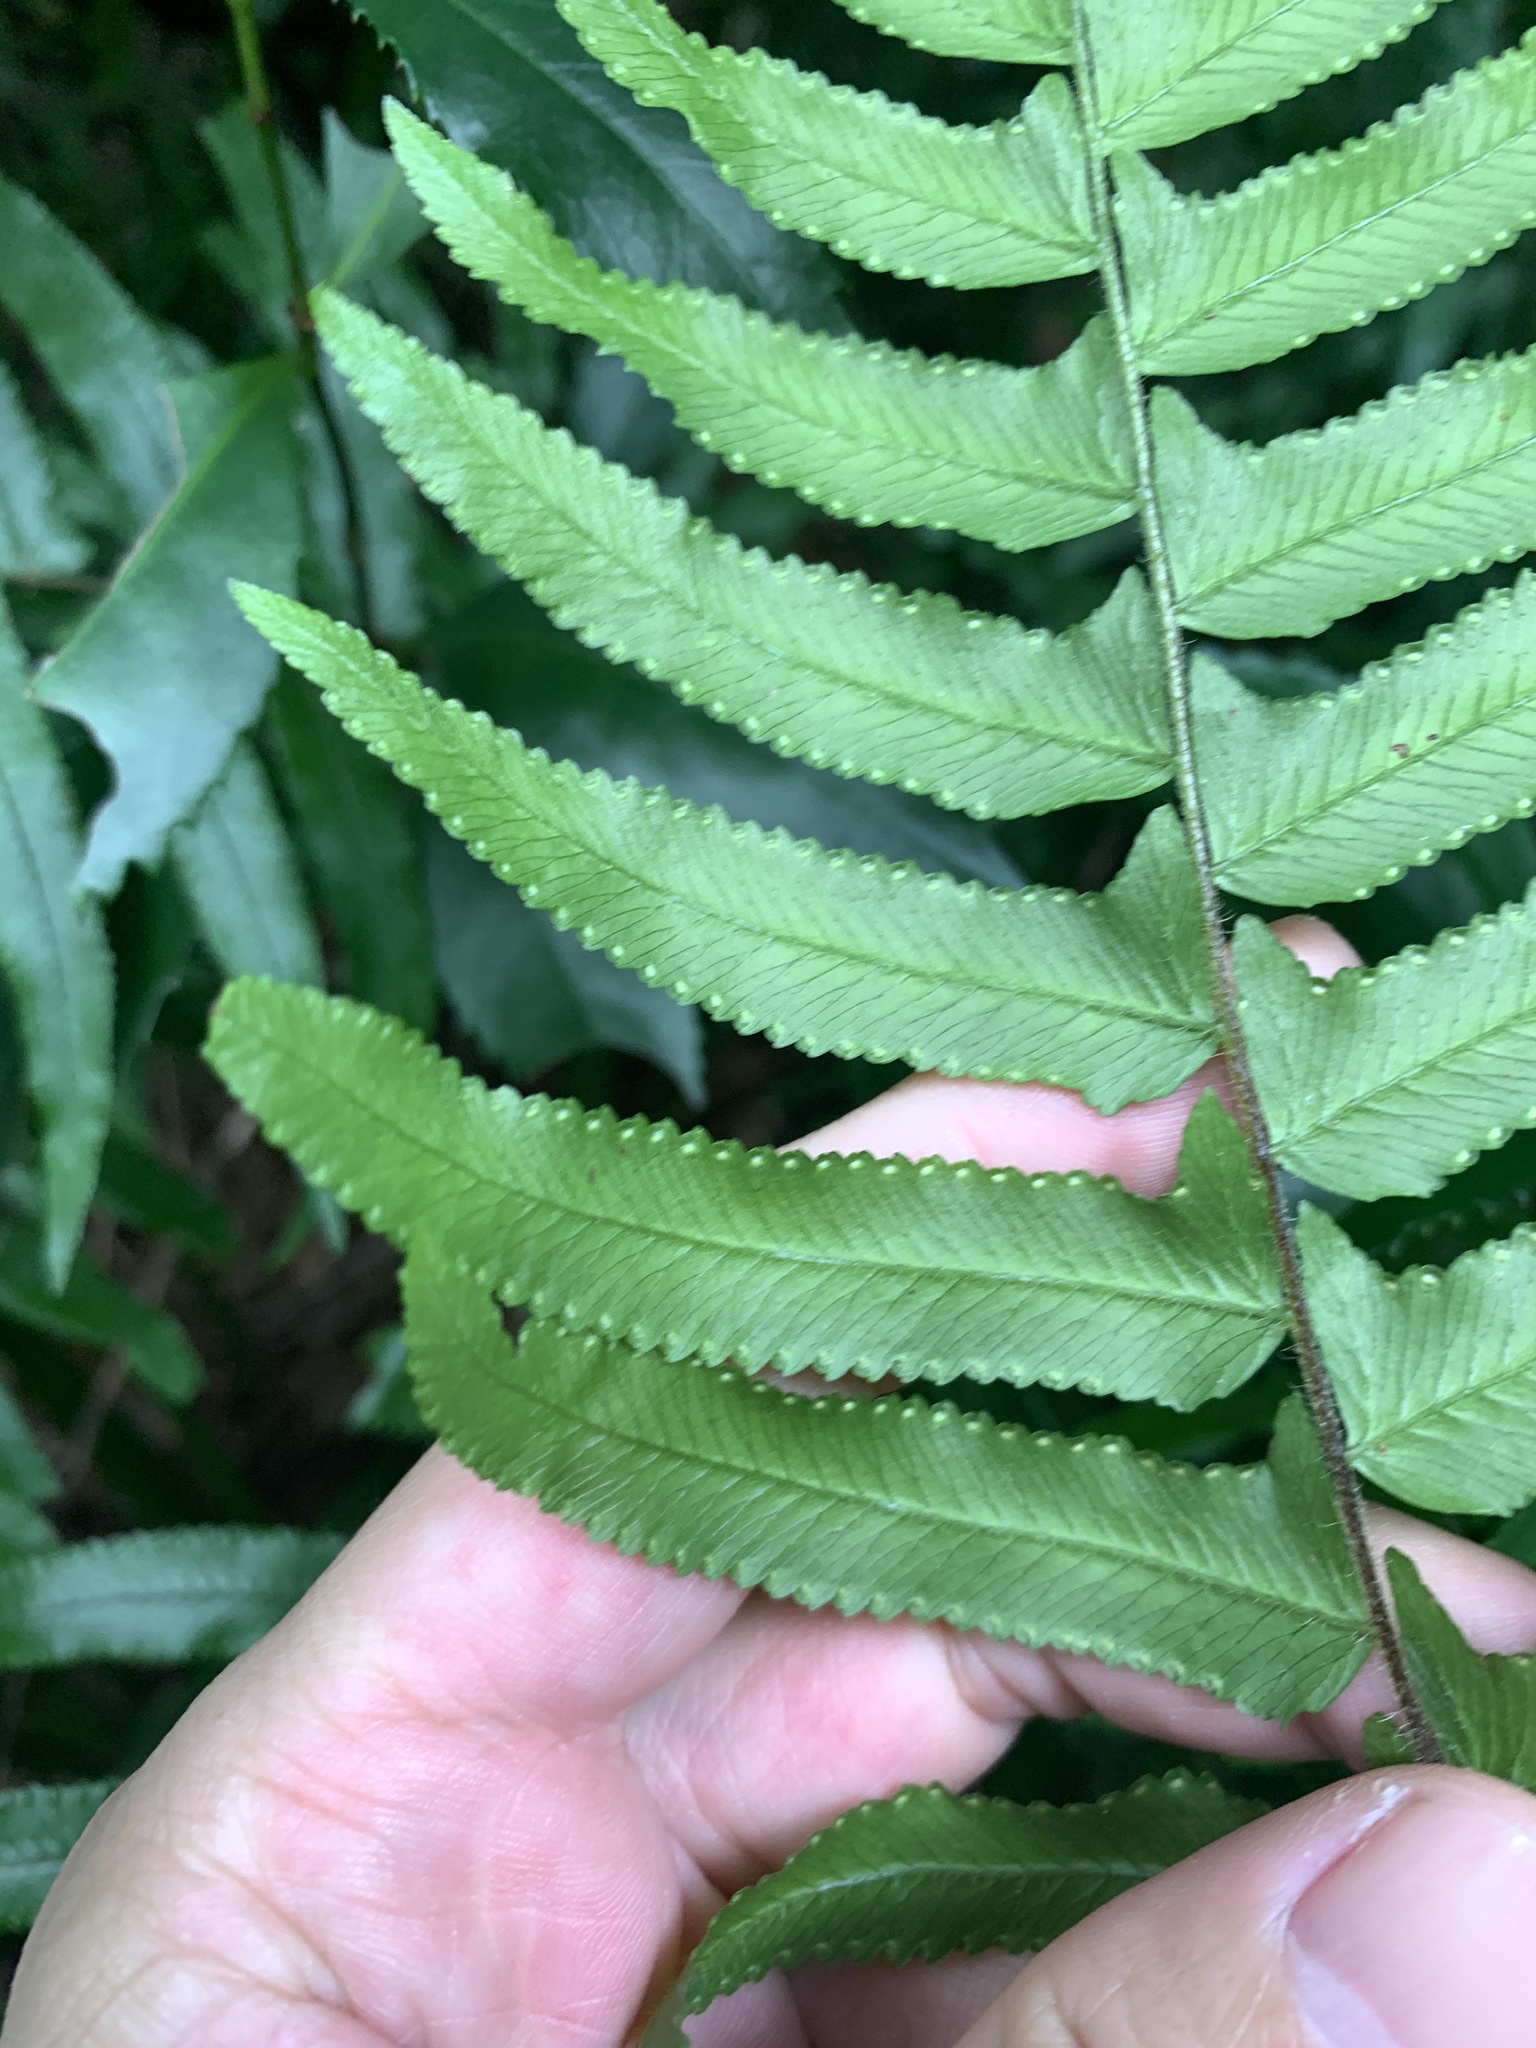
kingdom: Plantae
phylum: Tracheophyta
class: Polypodiopsida
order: Polypodiales
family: Dennstaedtiaceae
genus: Microlepia
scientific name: Microlepia hookeriana
